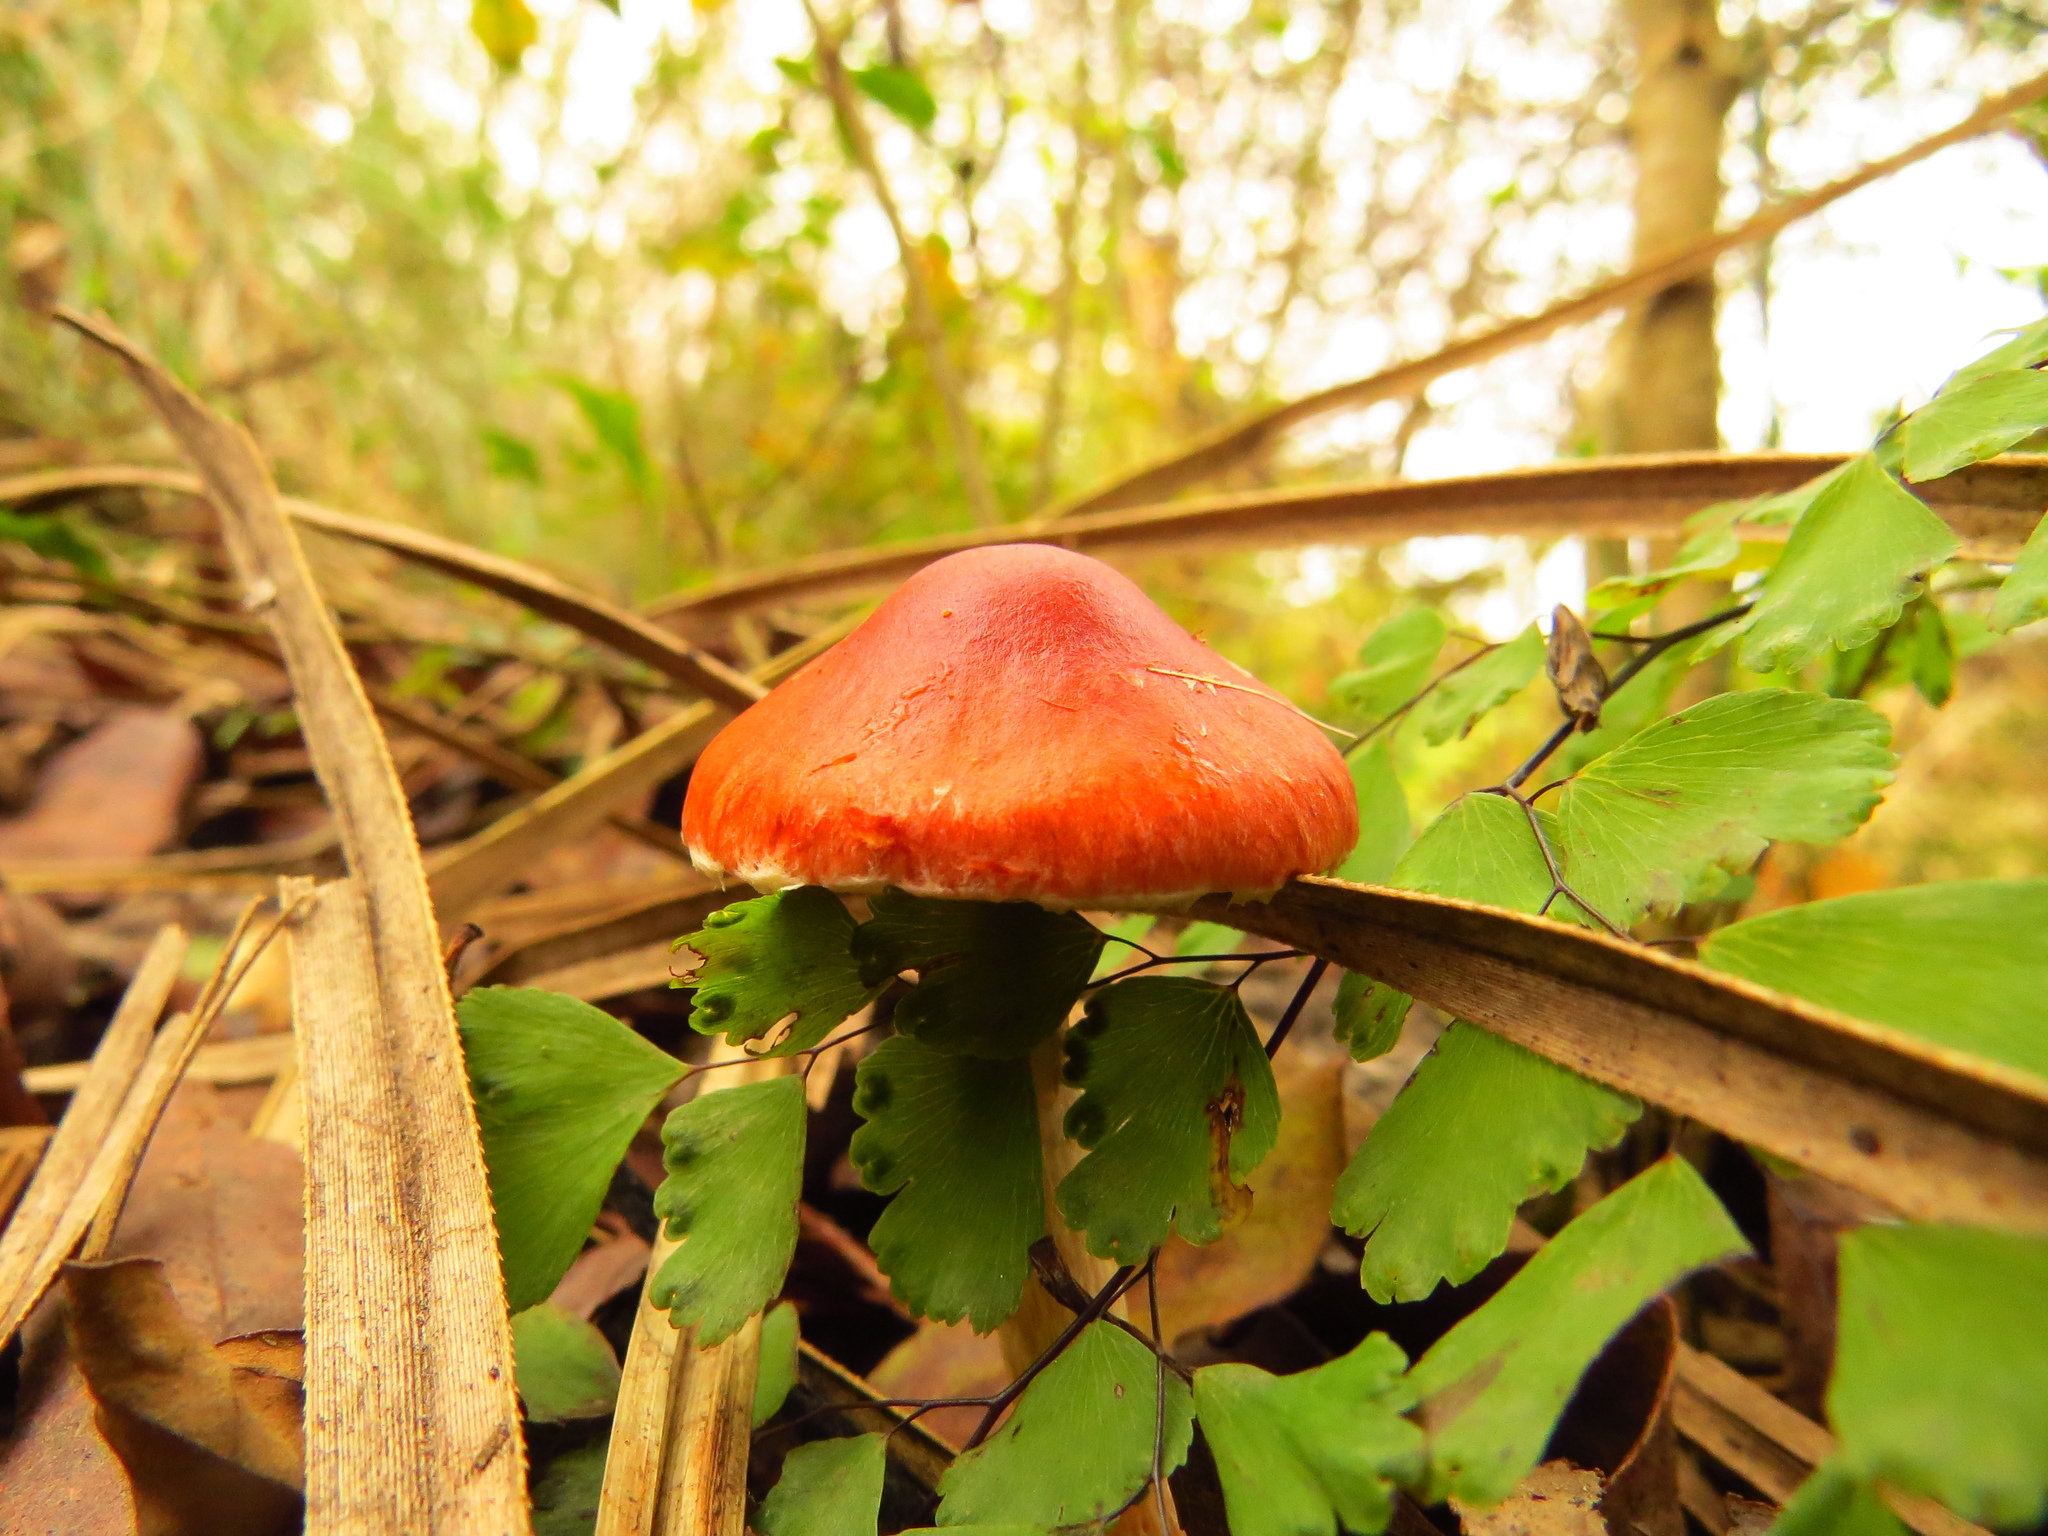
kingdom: Fungi
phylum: Basidiomycota
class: Agaricomycetes
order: Agaricales
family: Strophariaceae
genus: Leratiomyces
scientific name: Leratiomyces ceres
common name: Redlead roundhead
